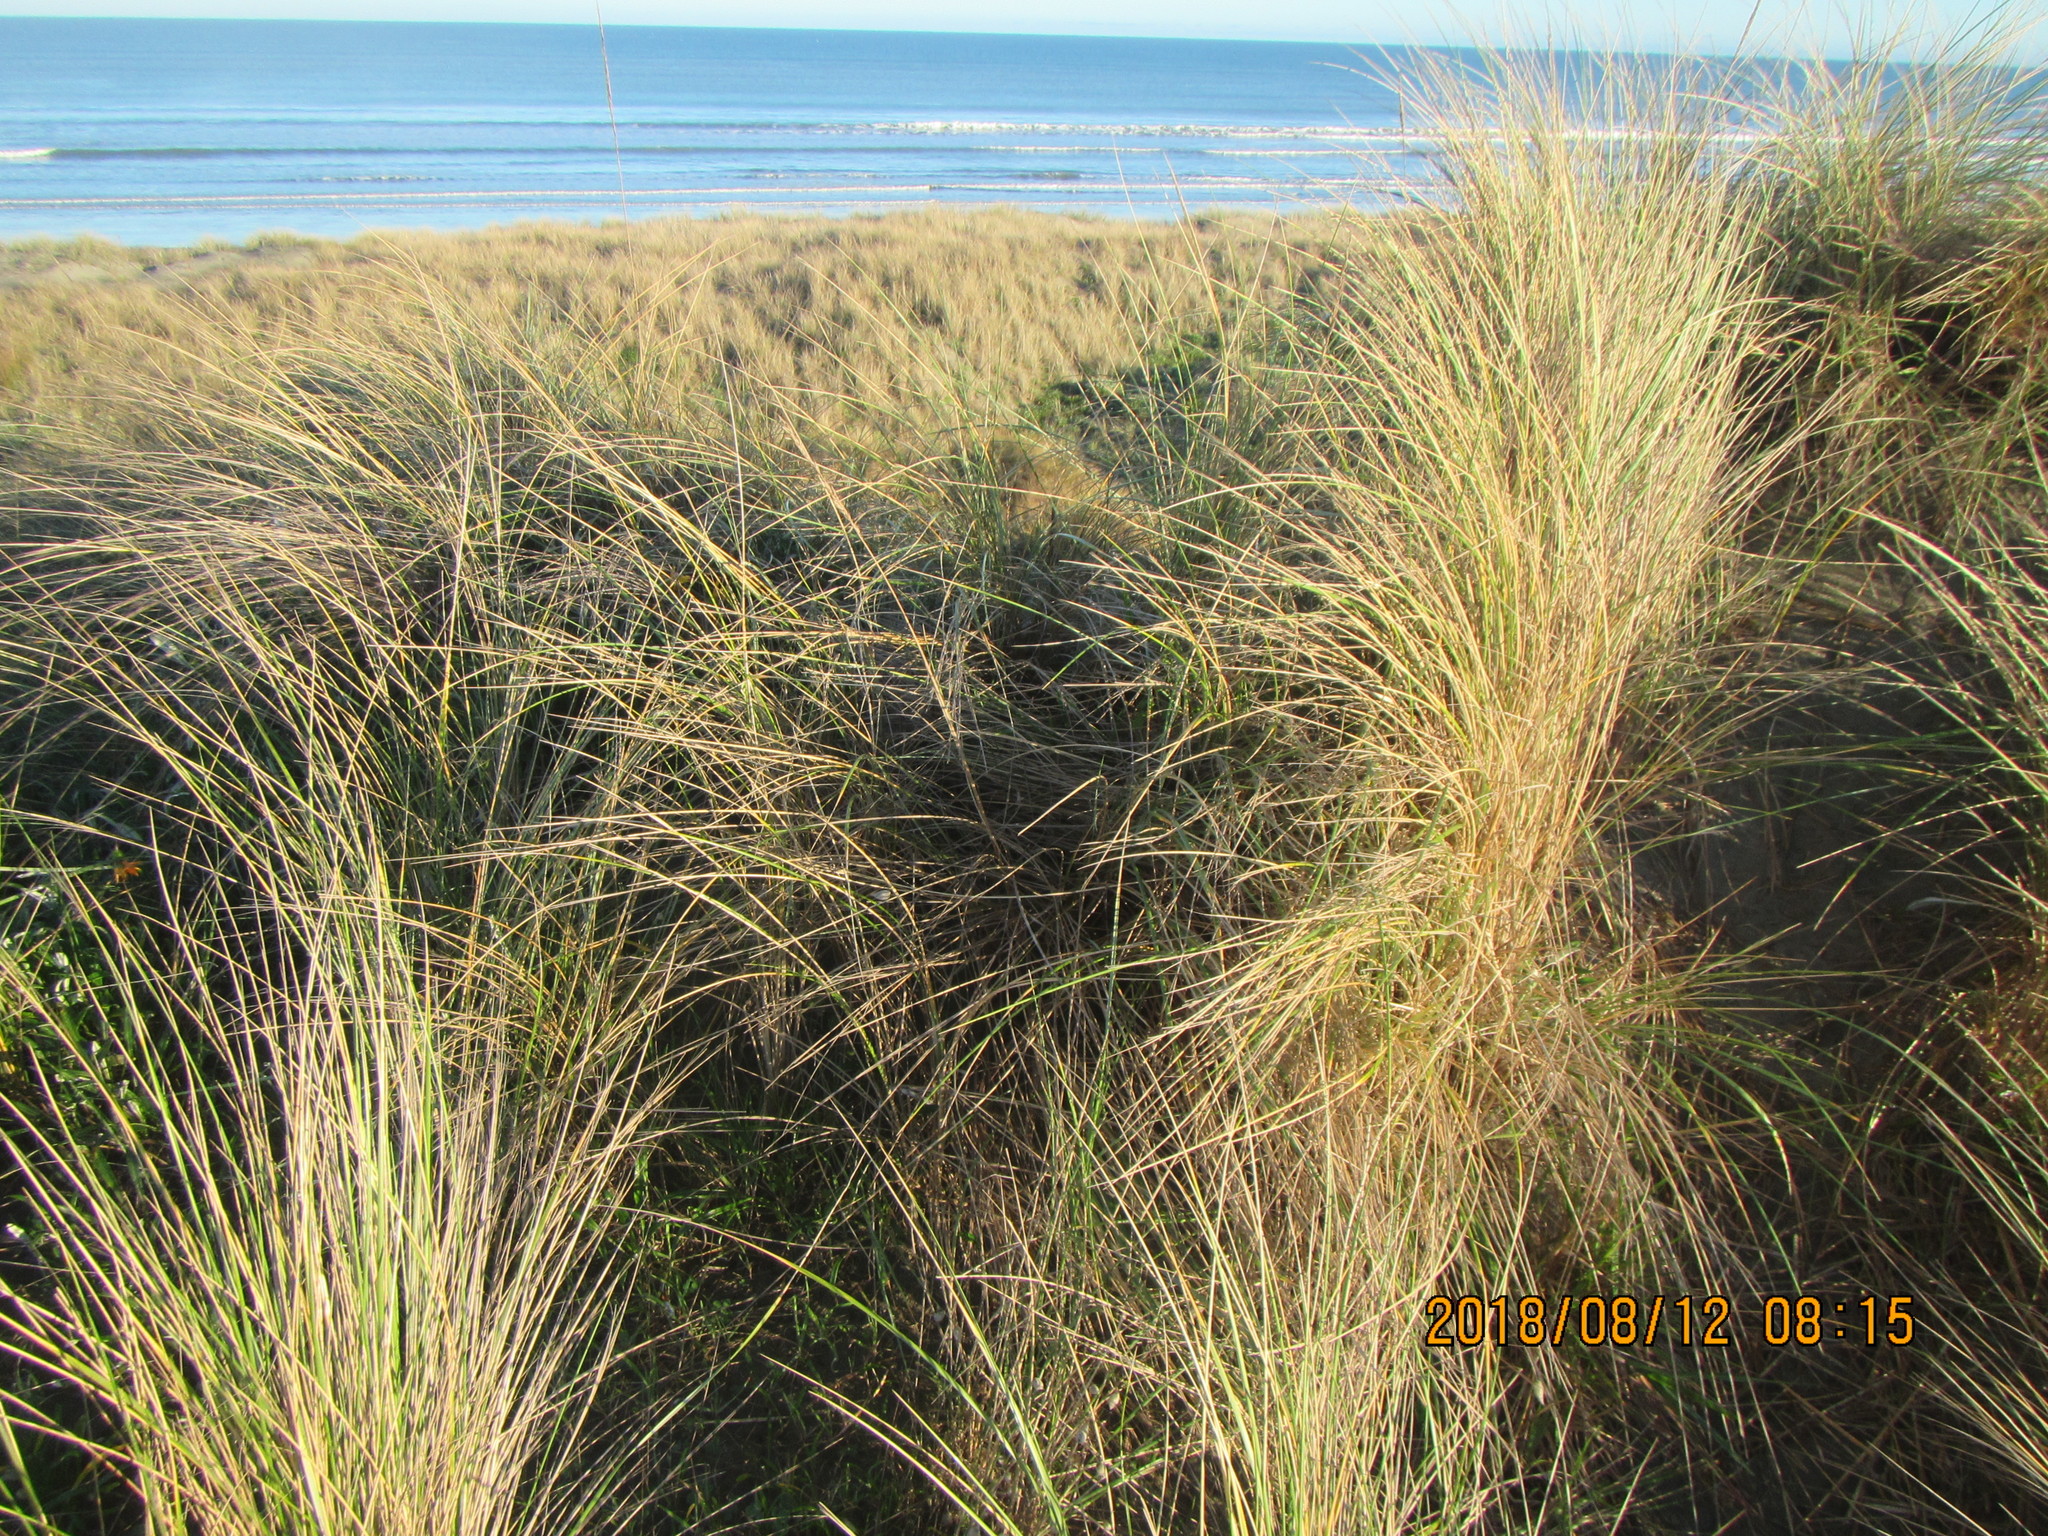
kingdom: Plantae
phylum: Tracheophyta
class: Liliopsida
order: Poales
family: Poaceae
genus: Calamagrostis
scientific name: Calamagrostis arenaria
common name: European beachgrass
